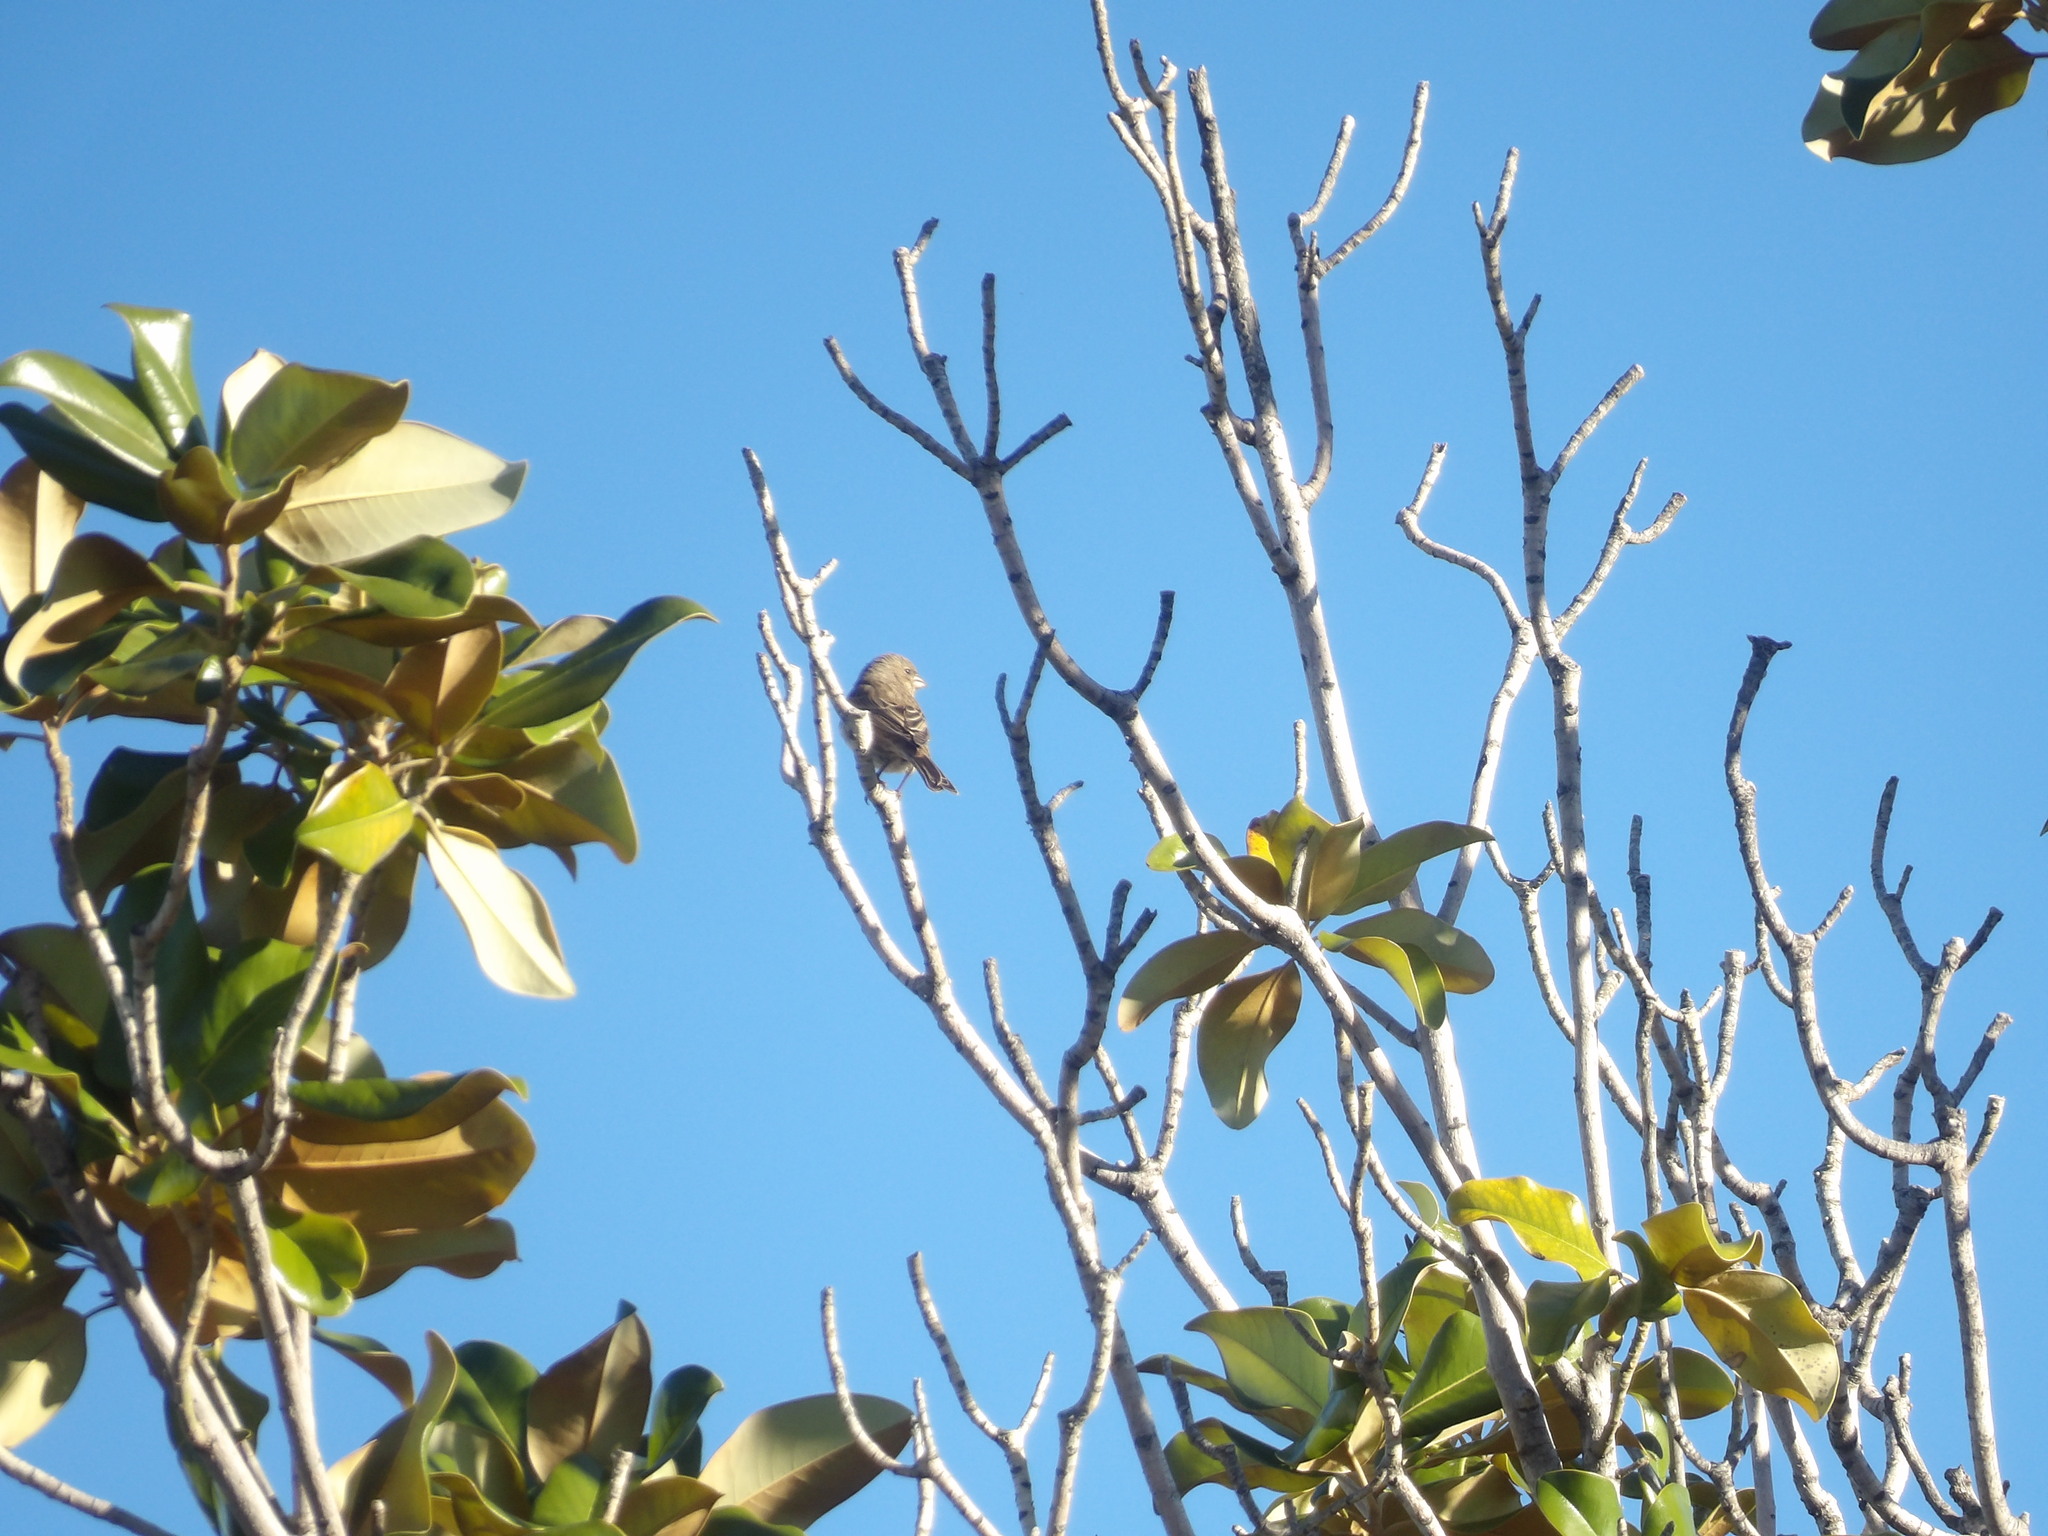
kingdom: Animalia
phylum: Chordata
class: Aves
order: Passeriformes
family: Fringillidae
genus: Haemorhous
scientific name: Haemorhous mexicanus
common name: House finch
